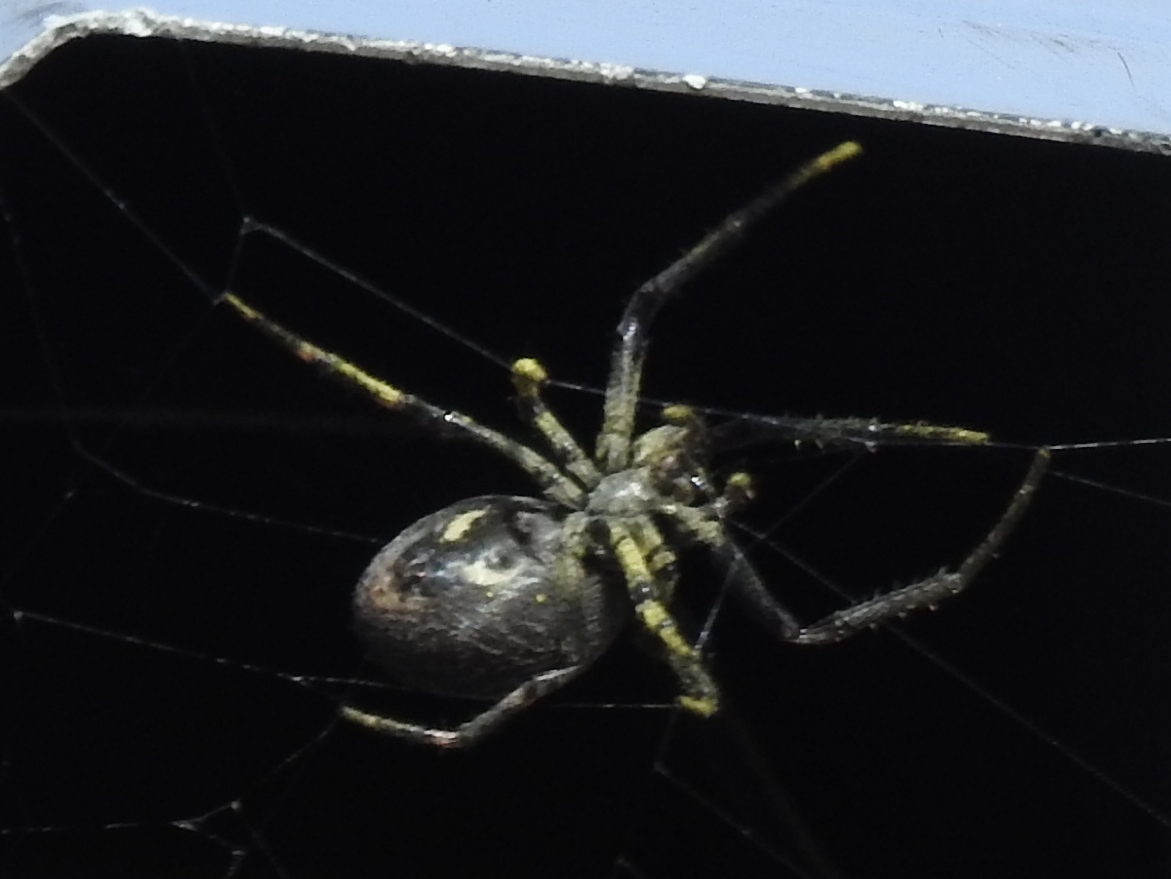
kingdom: Animalia
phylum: Arthropoda
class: Arachnida
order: Araneae
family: Araneidae
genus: Nuctenea
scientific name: Nuctenea umbratica
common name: Toad spider
